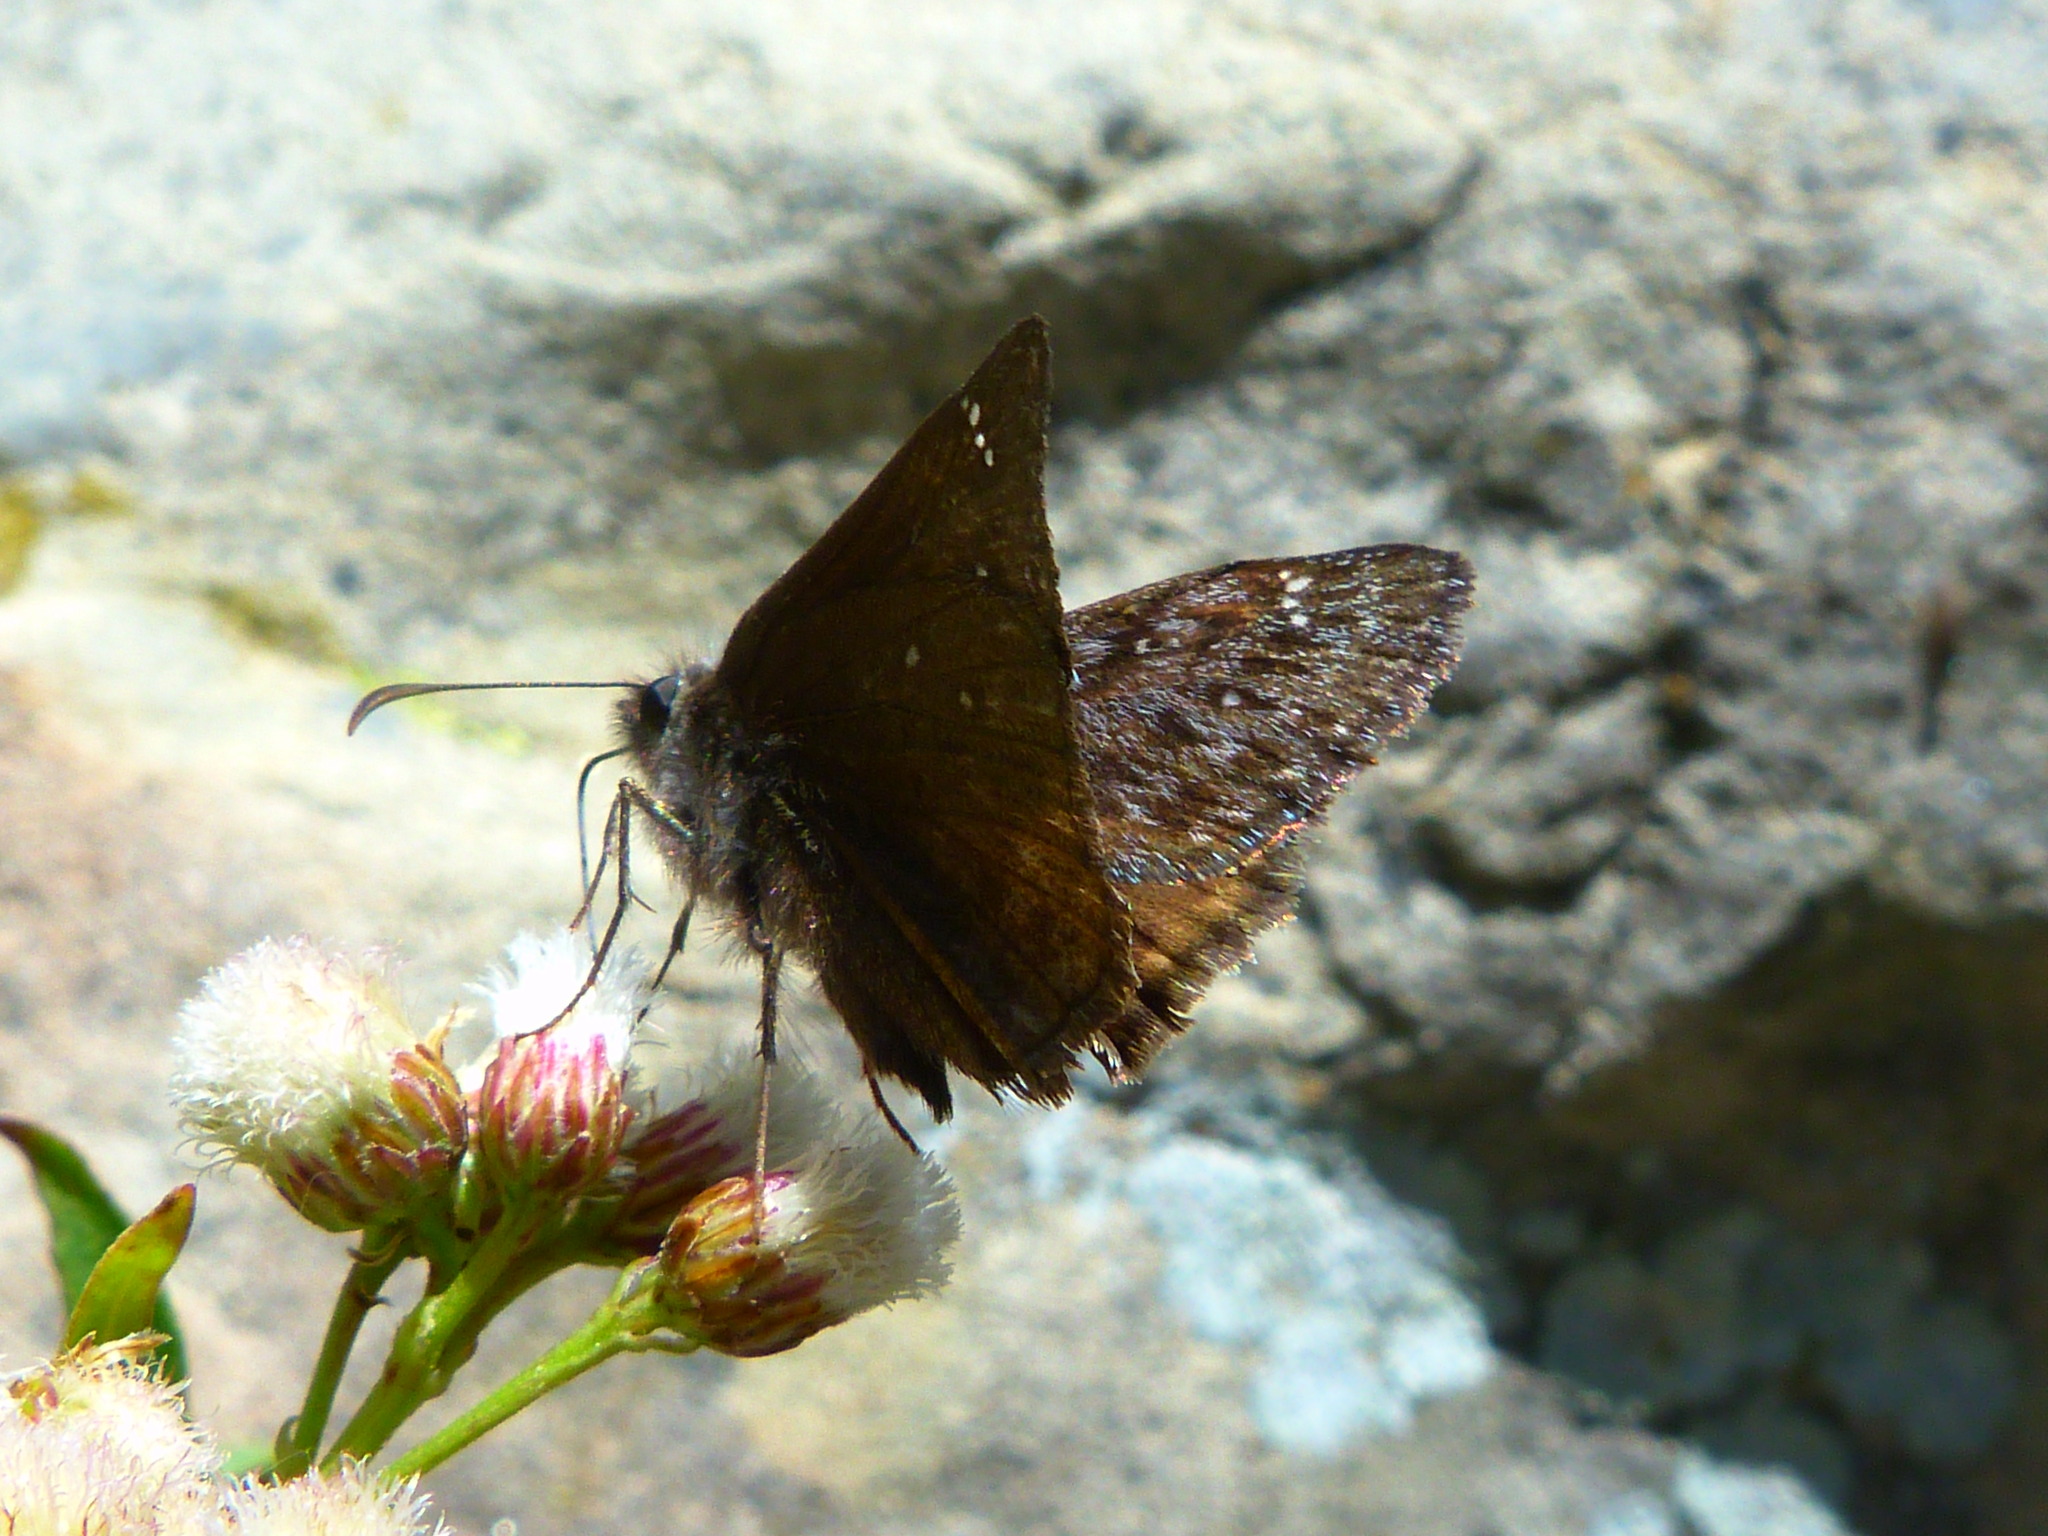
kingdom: Animalia
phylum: Arthropoda
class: Insecta
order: Lepidoptera
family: Hesperiidae
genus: Erynnis
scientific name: Erynnis propertius
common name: Propertius duskywing
